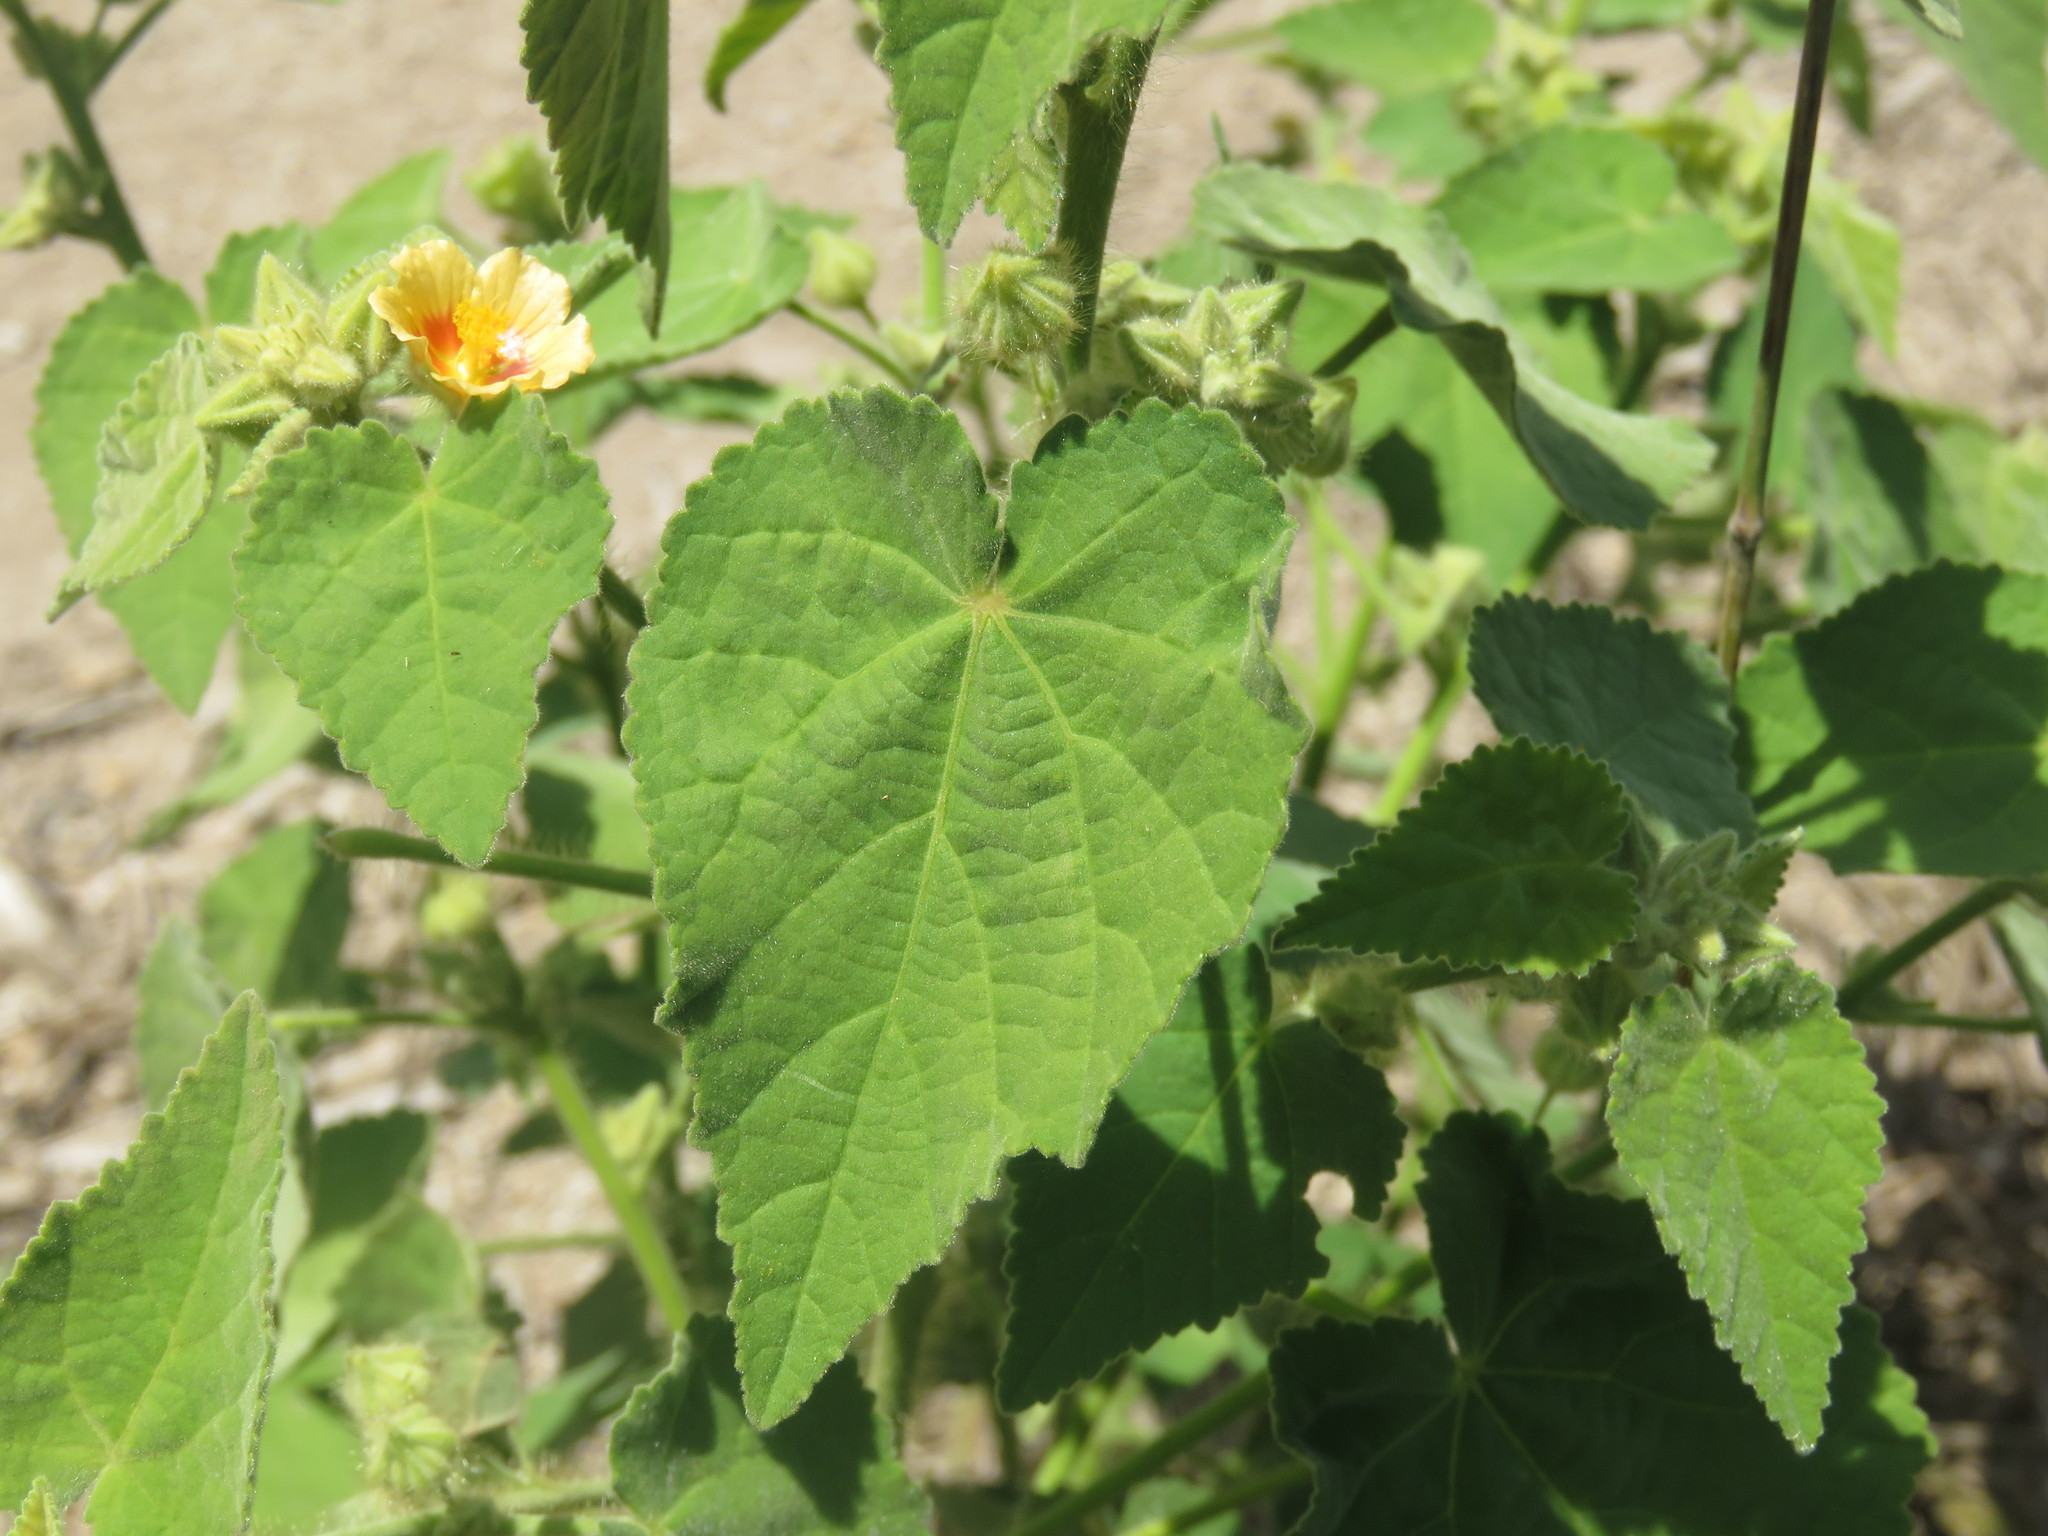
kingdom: Plantae
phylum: Tracheophyta
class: Magnoliopsida
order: Malvales
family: Malvaceae
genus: Sida
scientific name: Sida cordifolia
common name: Ilima
